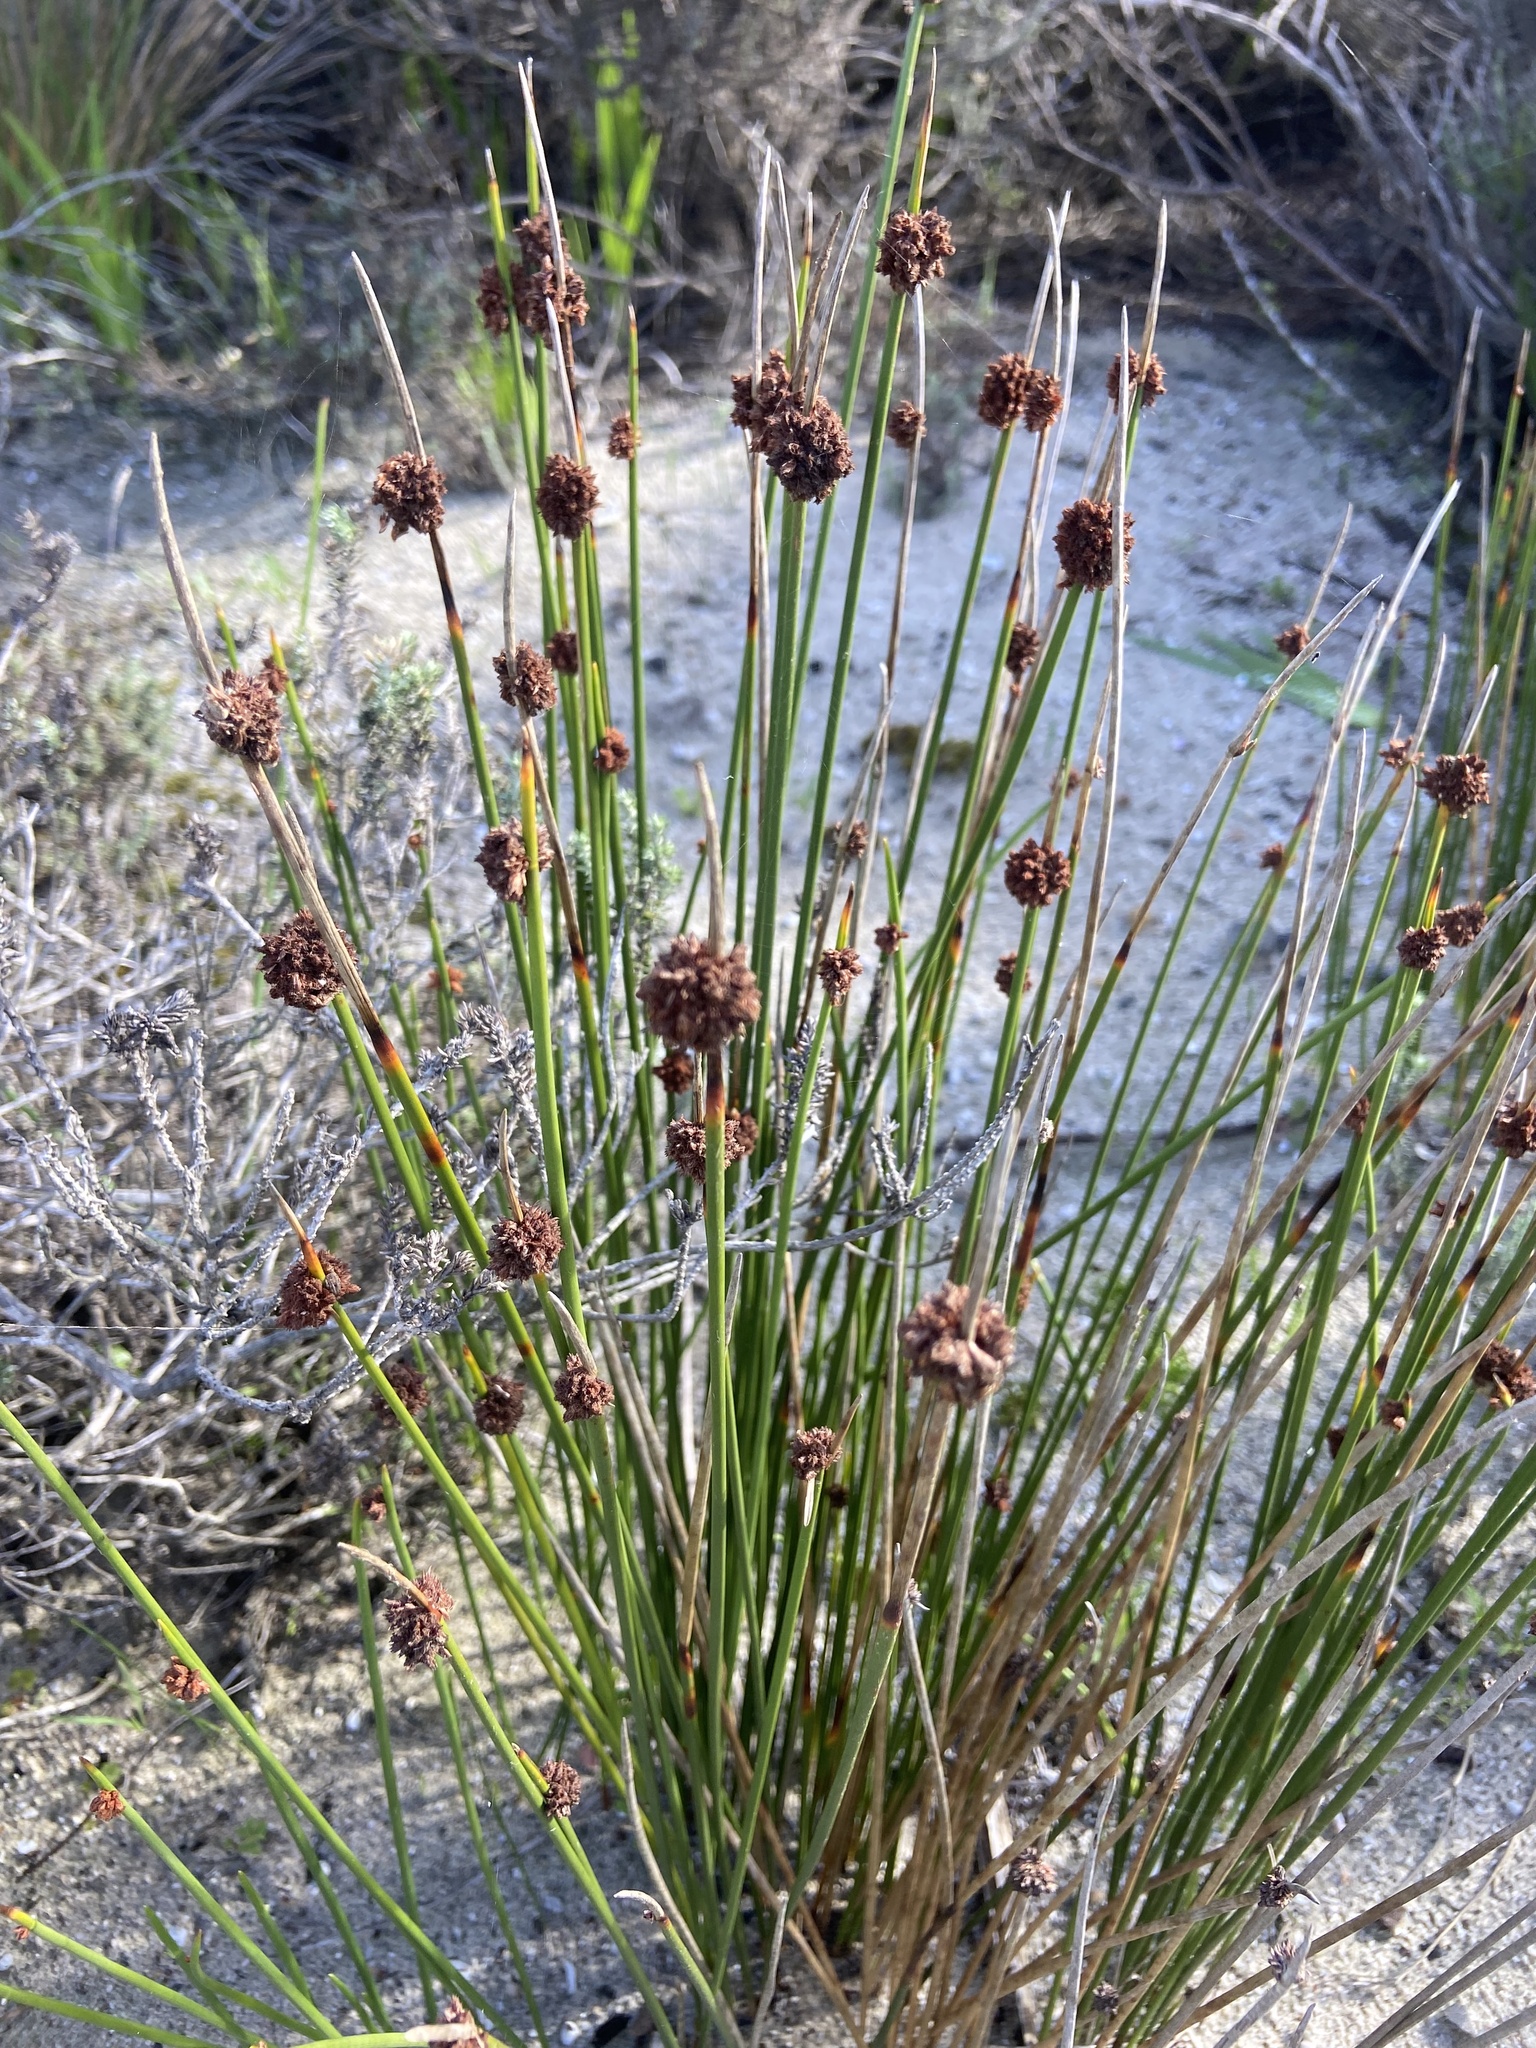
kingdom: Plantae
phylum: Tracheophyta
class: Liliopsida
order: Poales
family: Cyperaceae
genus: Ficinia
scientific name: Ficinia nodosa
